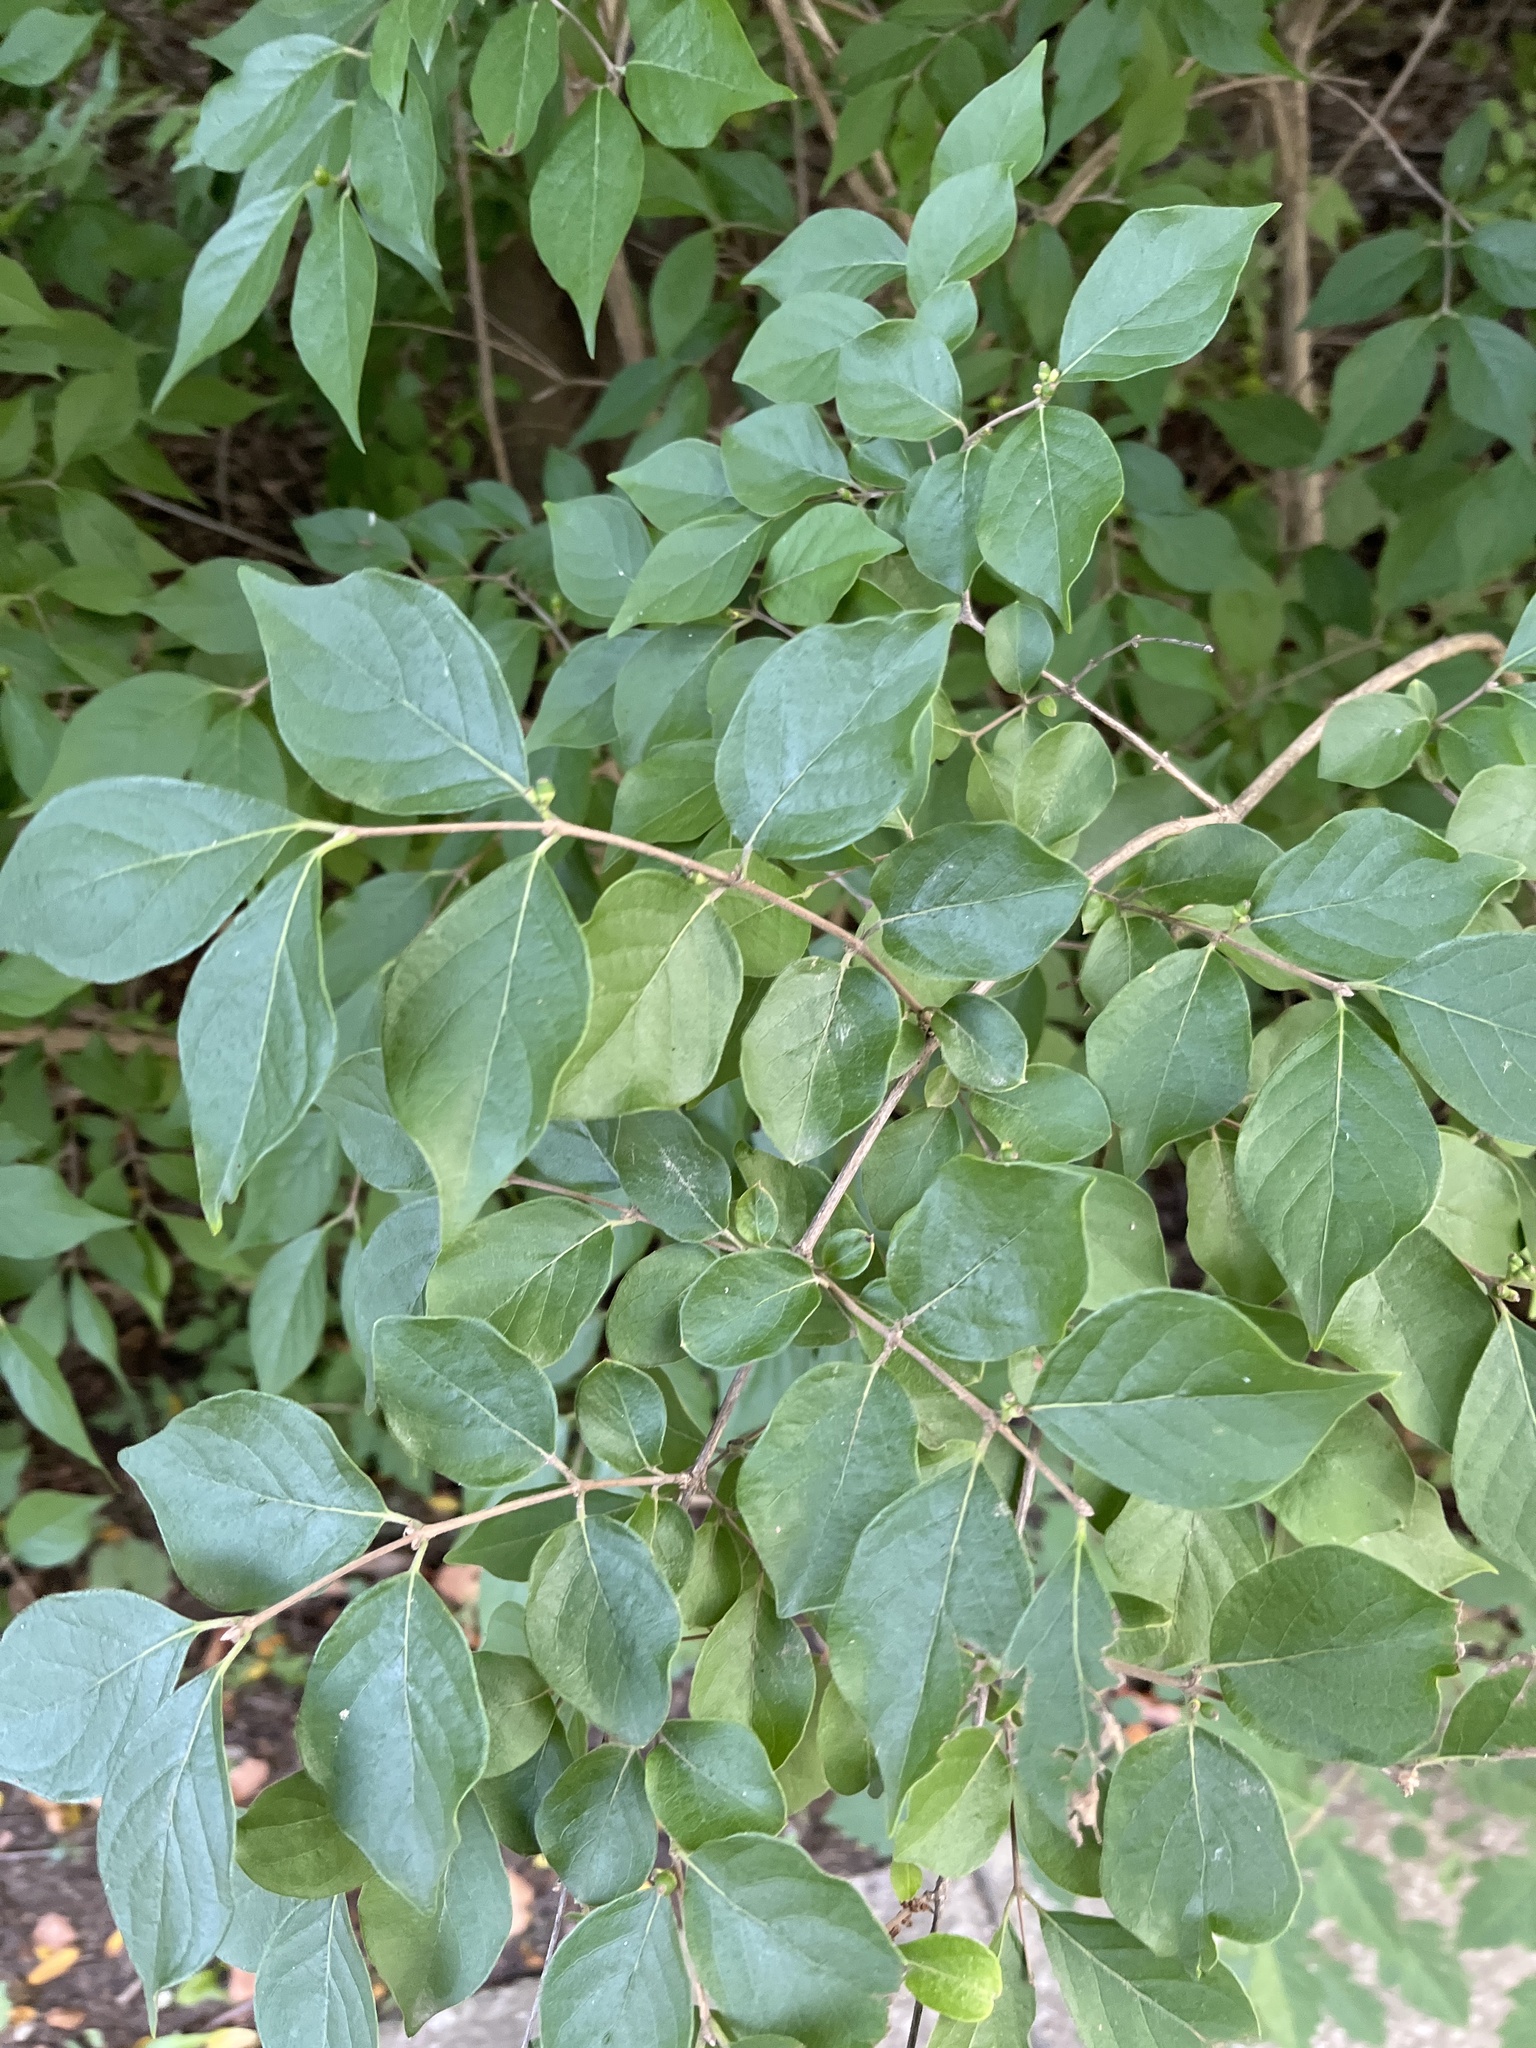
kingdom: Plantae
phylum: Tracheophyta
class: Magnoliopsida
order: Dipsacales
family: Caprifoliaceae
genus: Lonicera
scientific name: Lonicera maackii
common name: Amur honeysuckle
